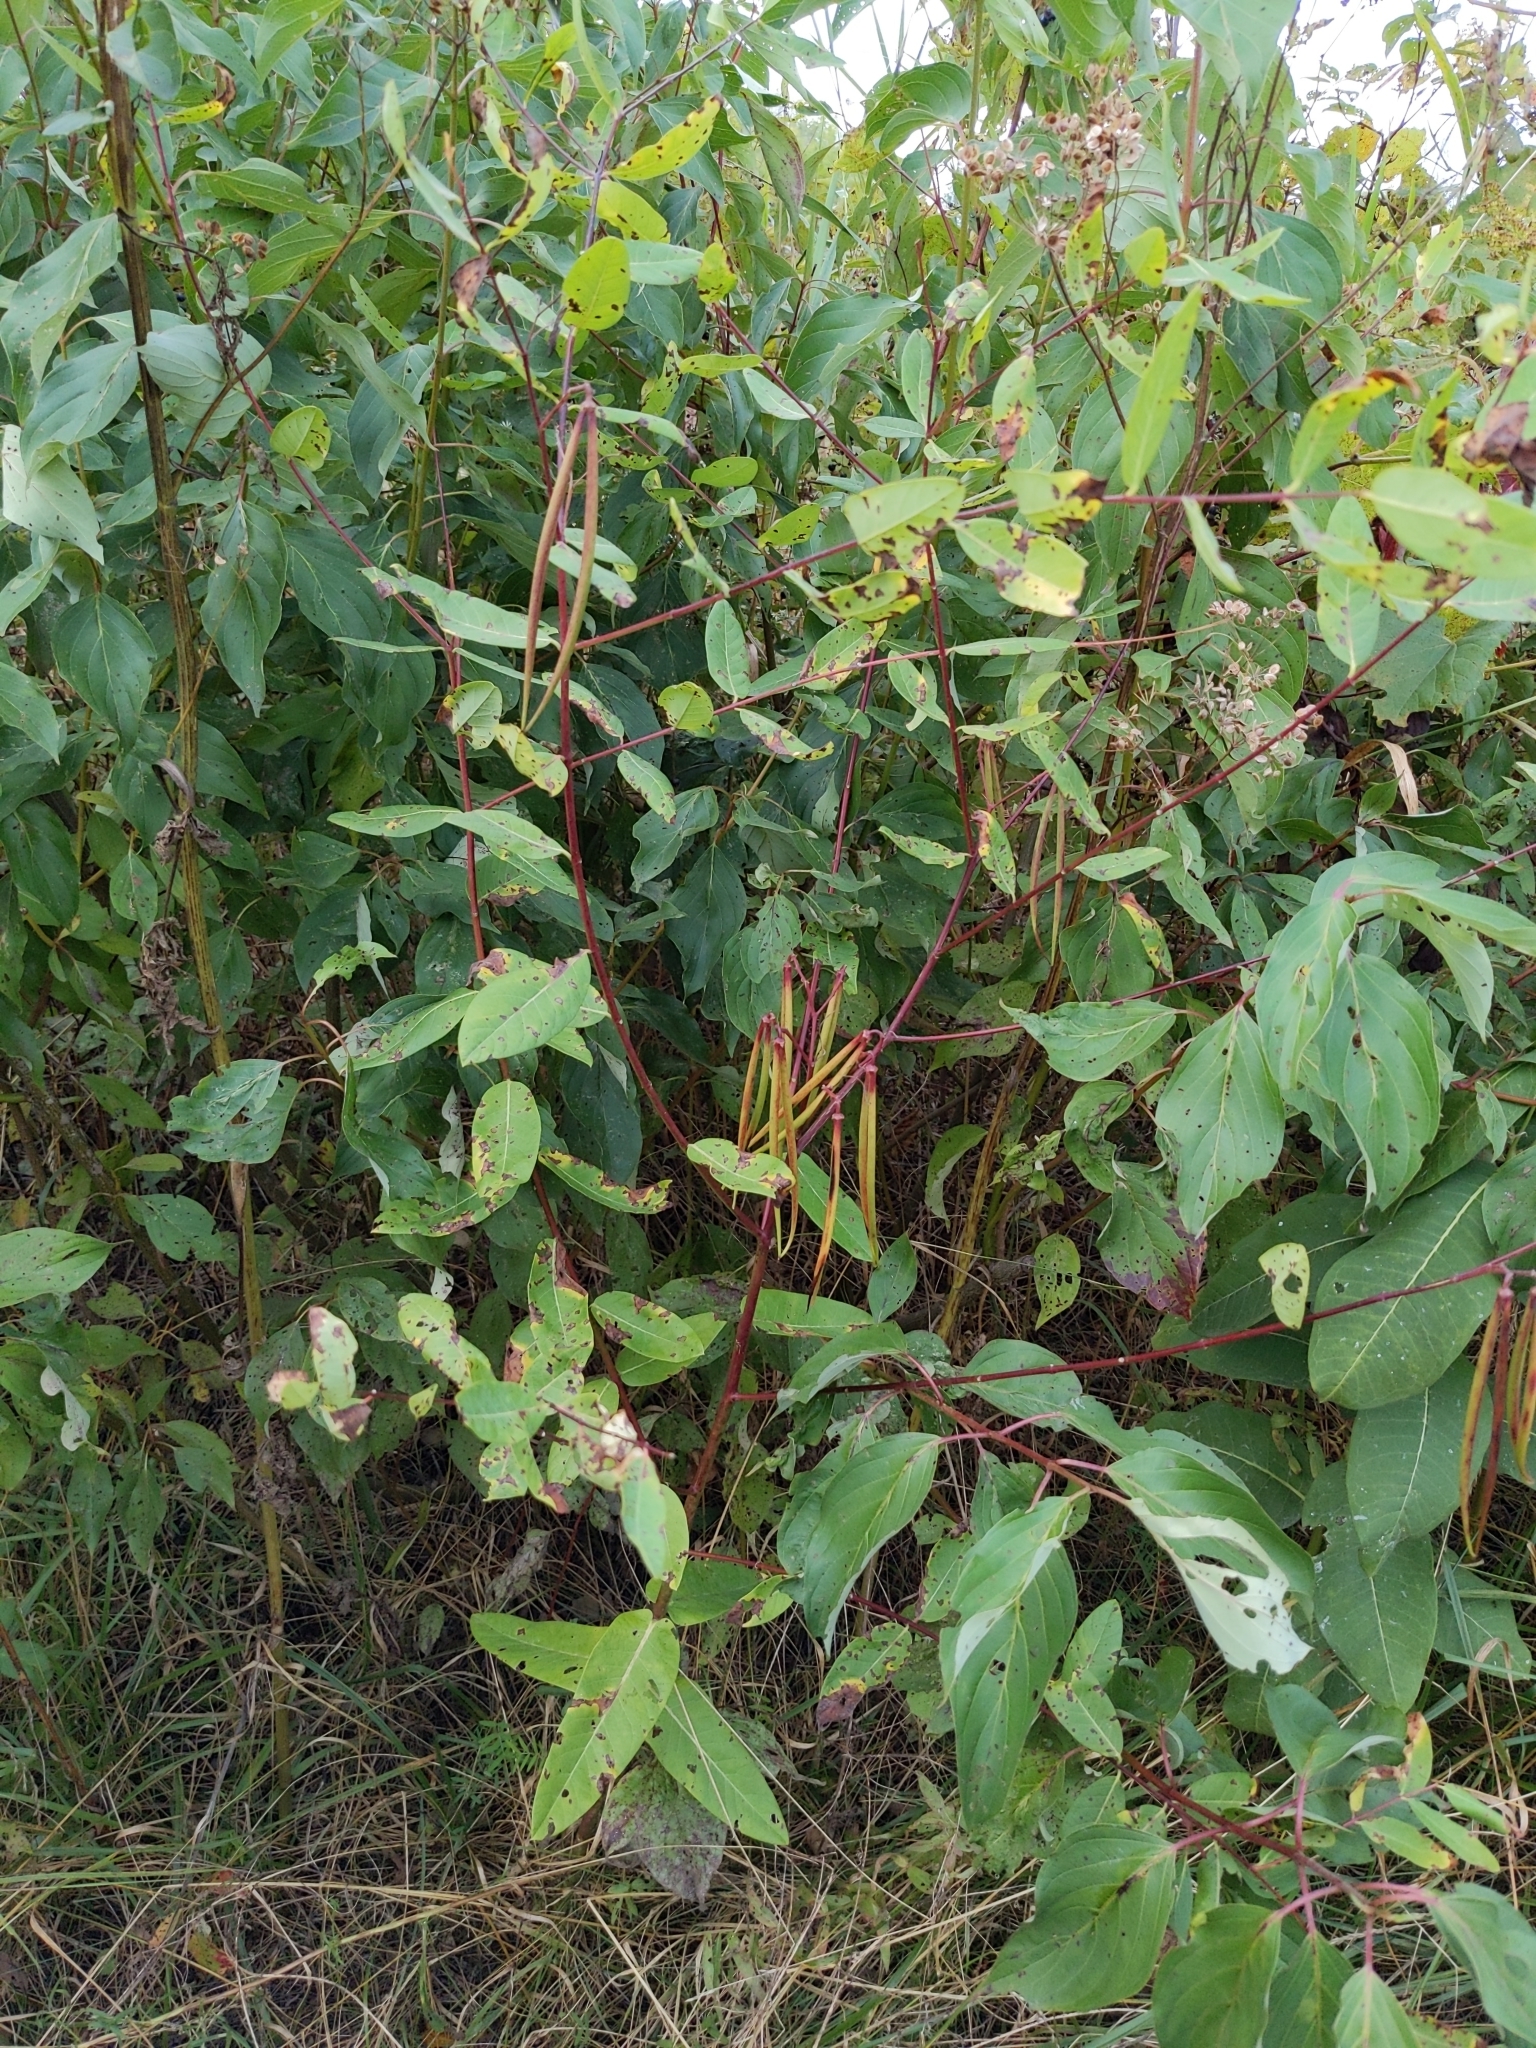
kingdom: Plantae
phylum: Tracheophyta
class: Magnoliopsida
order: Gentianales
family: Apocynaceae
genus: Apocynum
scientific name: Apocynum cannabinum
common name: Hemp dogbane
